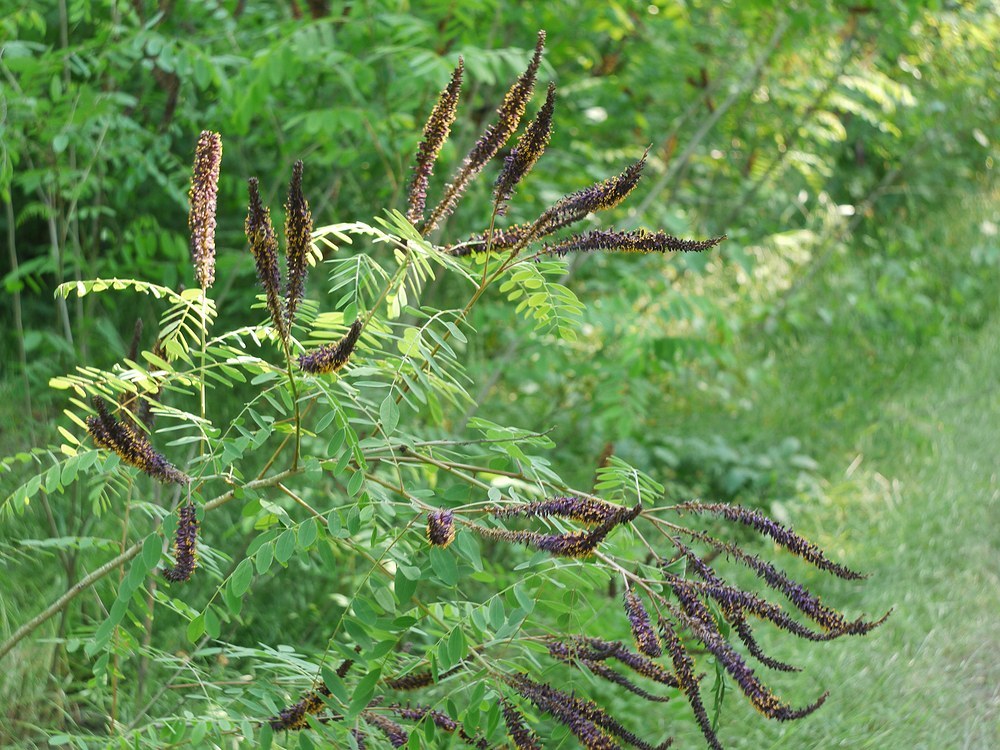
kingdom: Plantae
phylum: Tracheophyta
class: Magnoliopsida
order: Fabales
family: Fabaceae
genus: Amorpha
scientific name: Amorpha fruticosa
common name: False indigo
